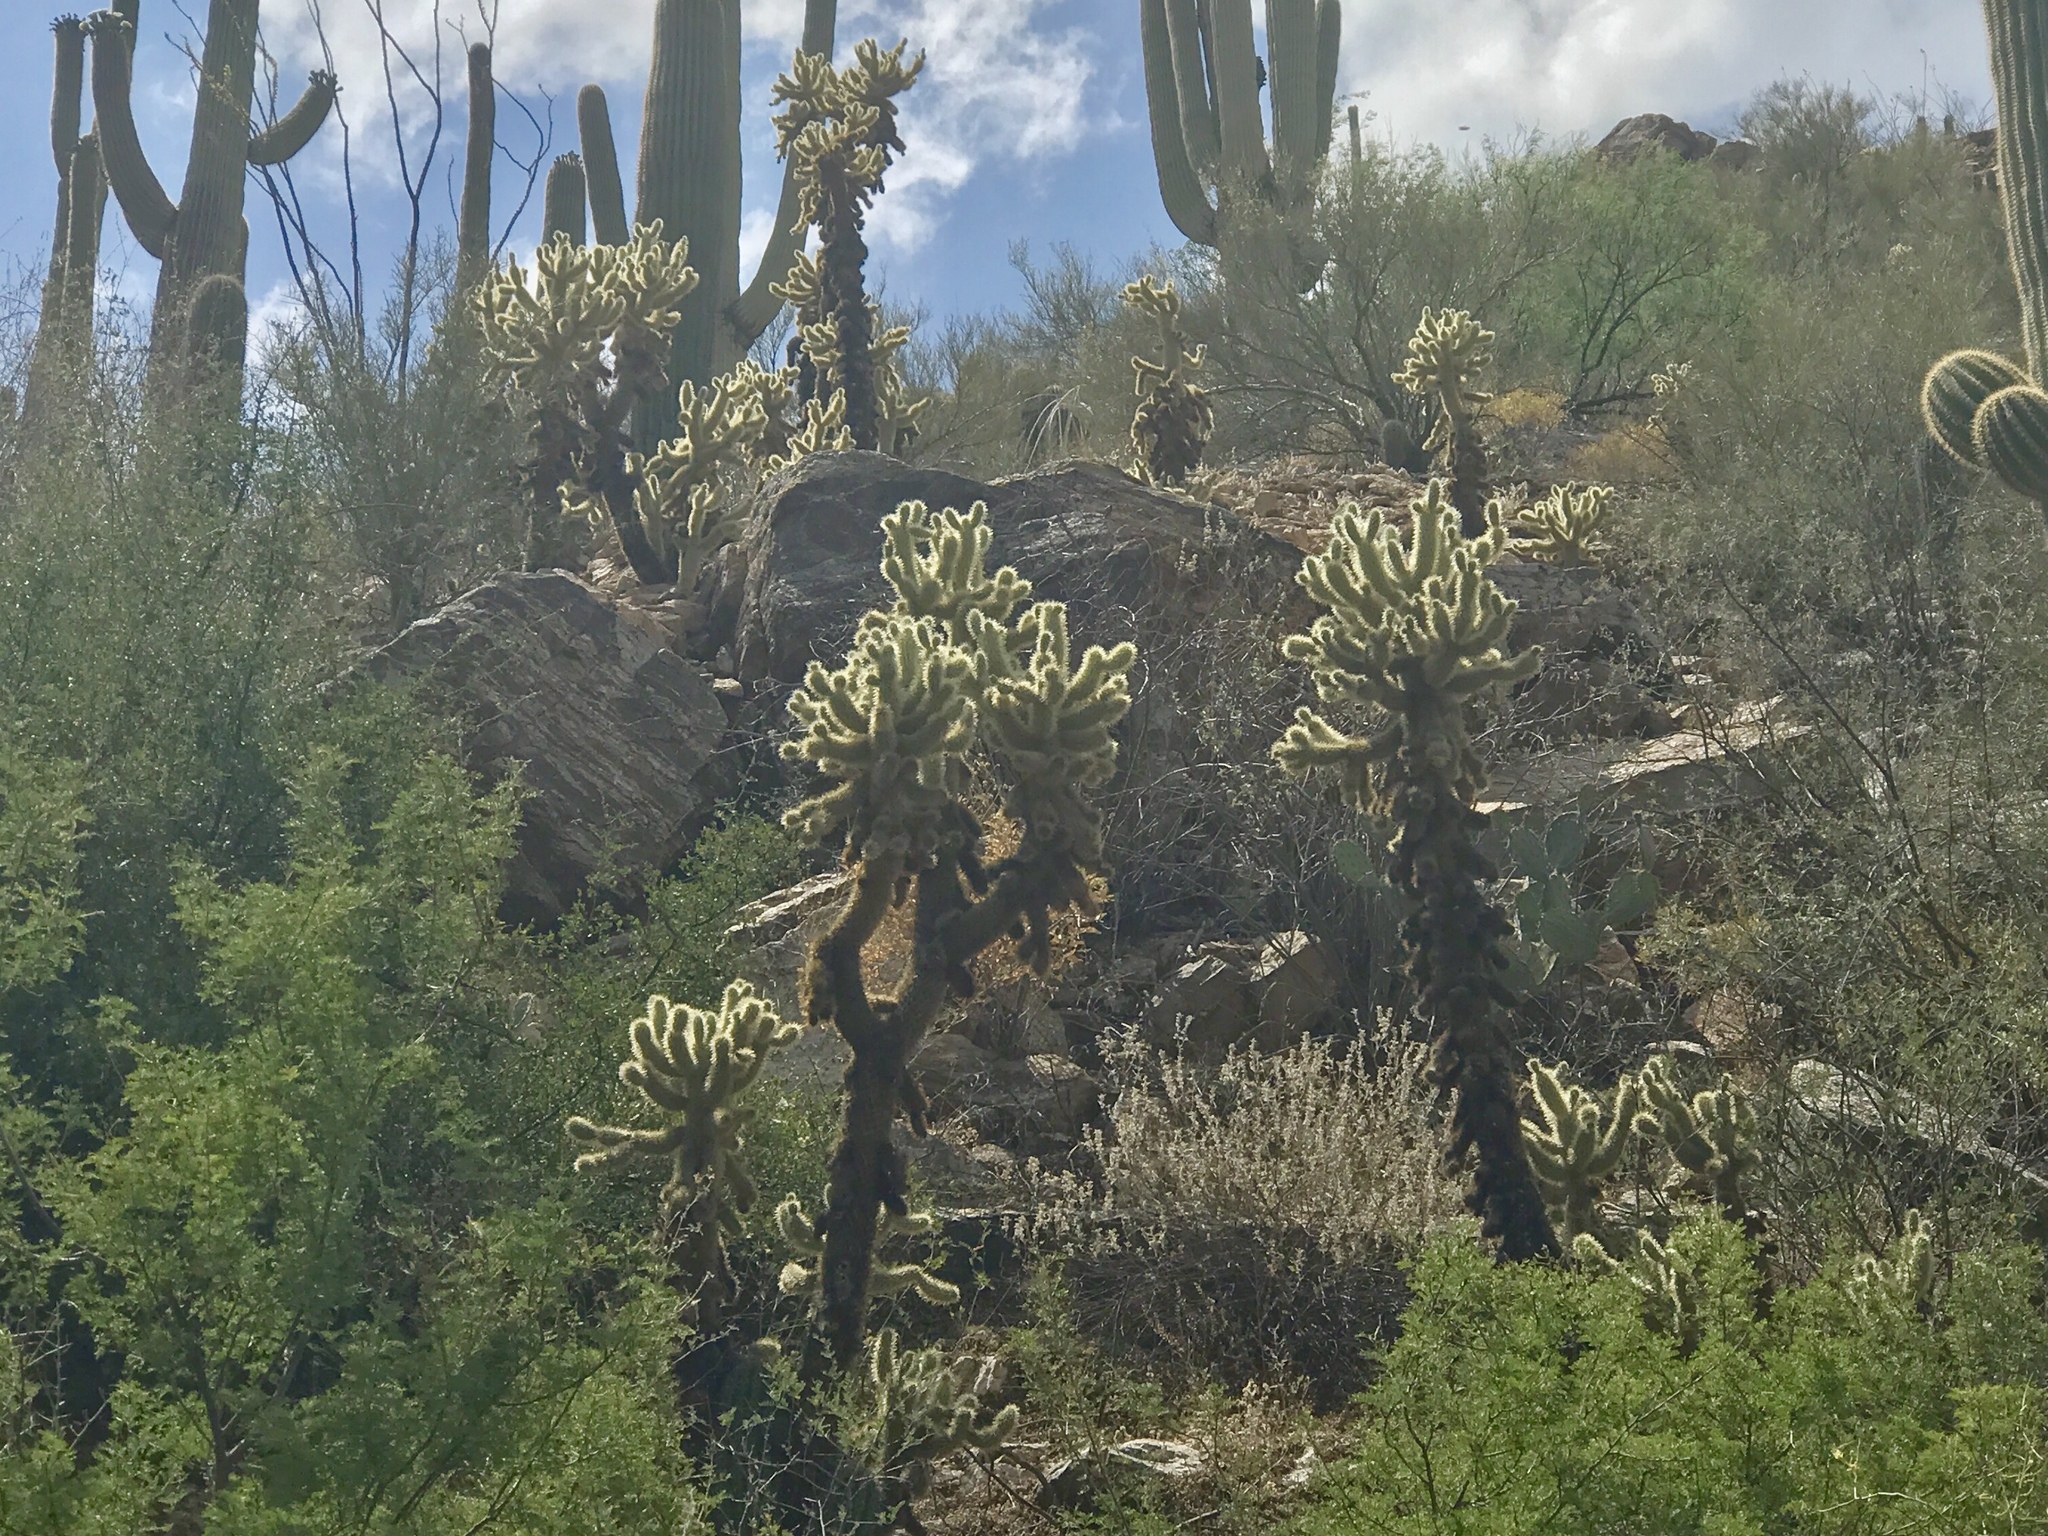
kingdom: Plantae
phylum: Tracheophyta
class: Magnoliopsida
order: Caryophyllales
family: Cactaceae
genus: Cylindropuntia
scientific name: Cylindropuntia fosbergii
